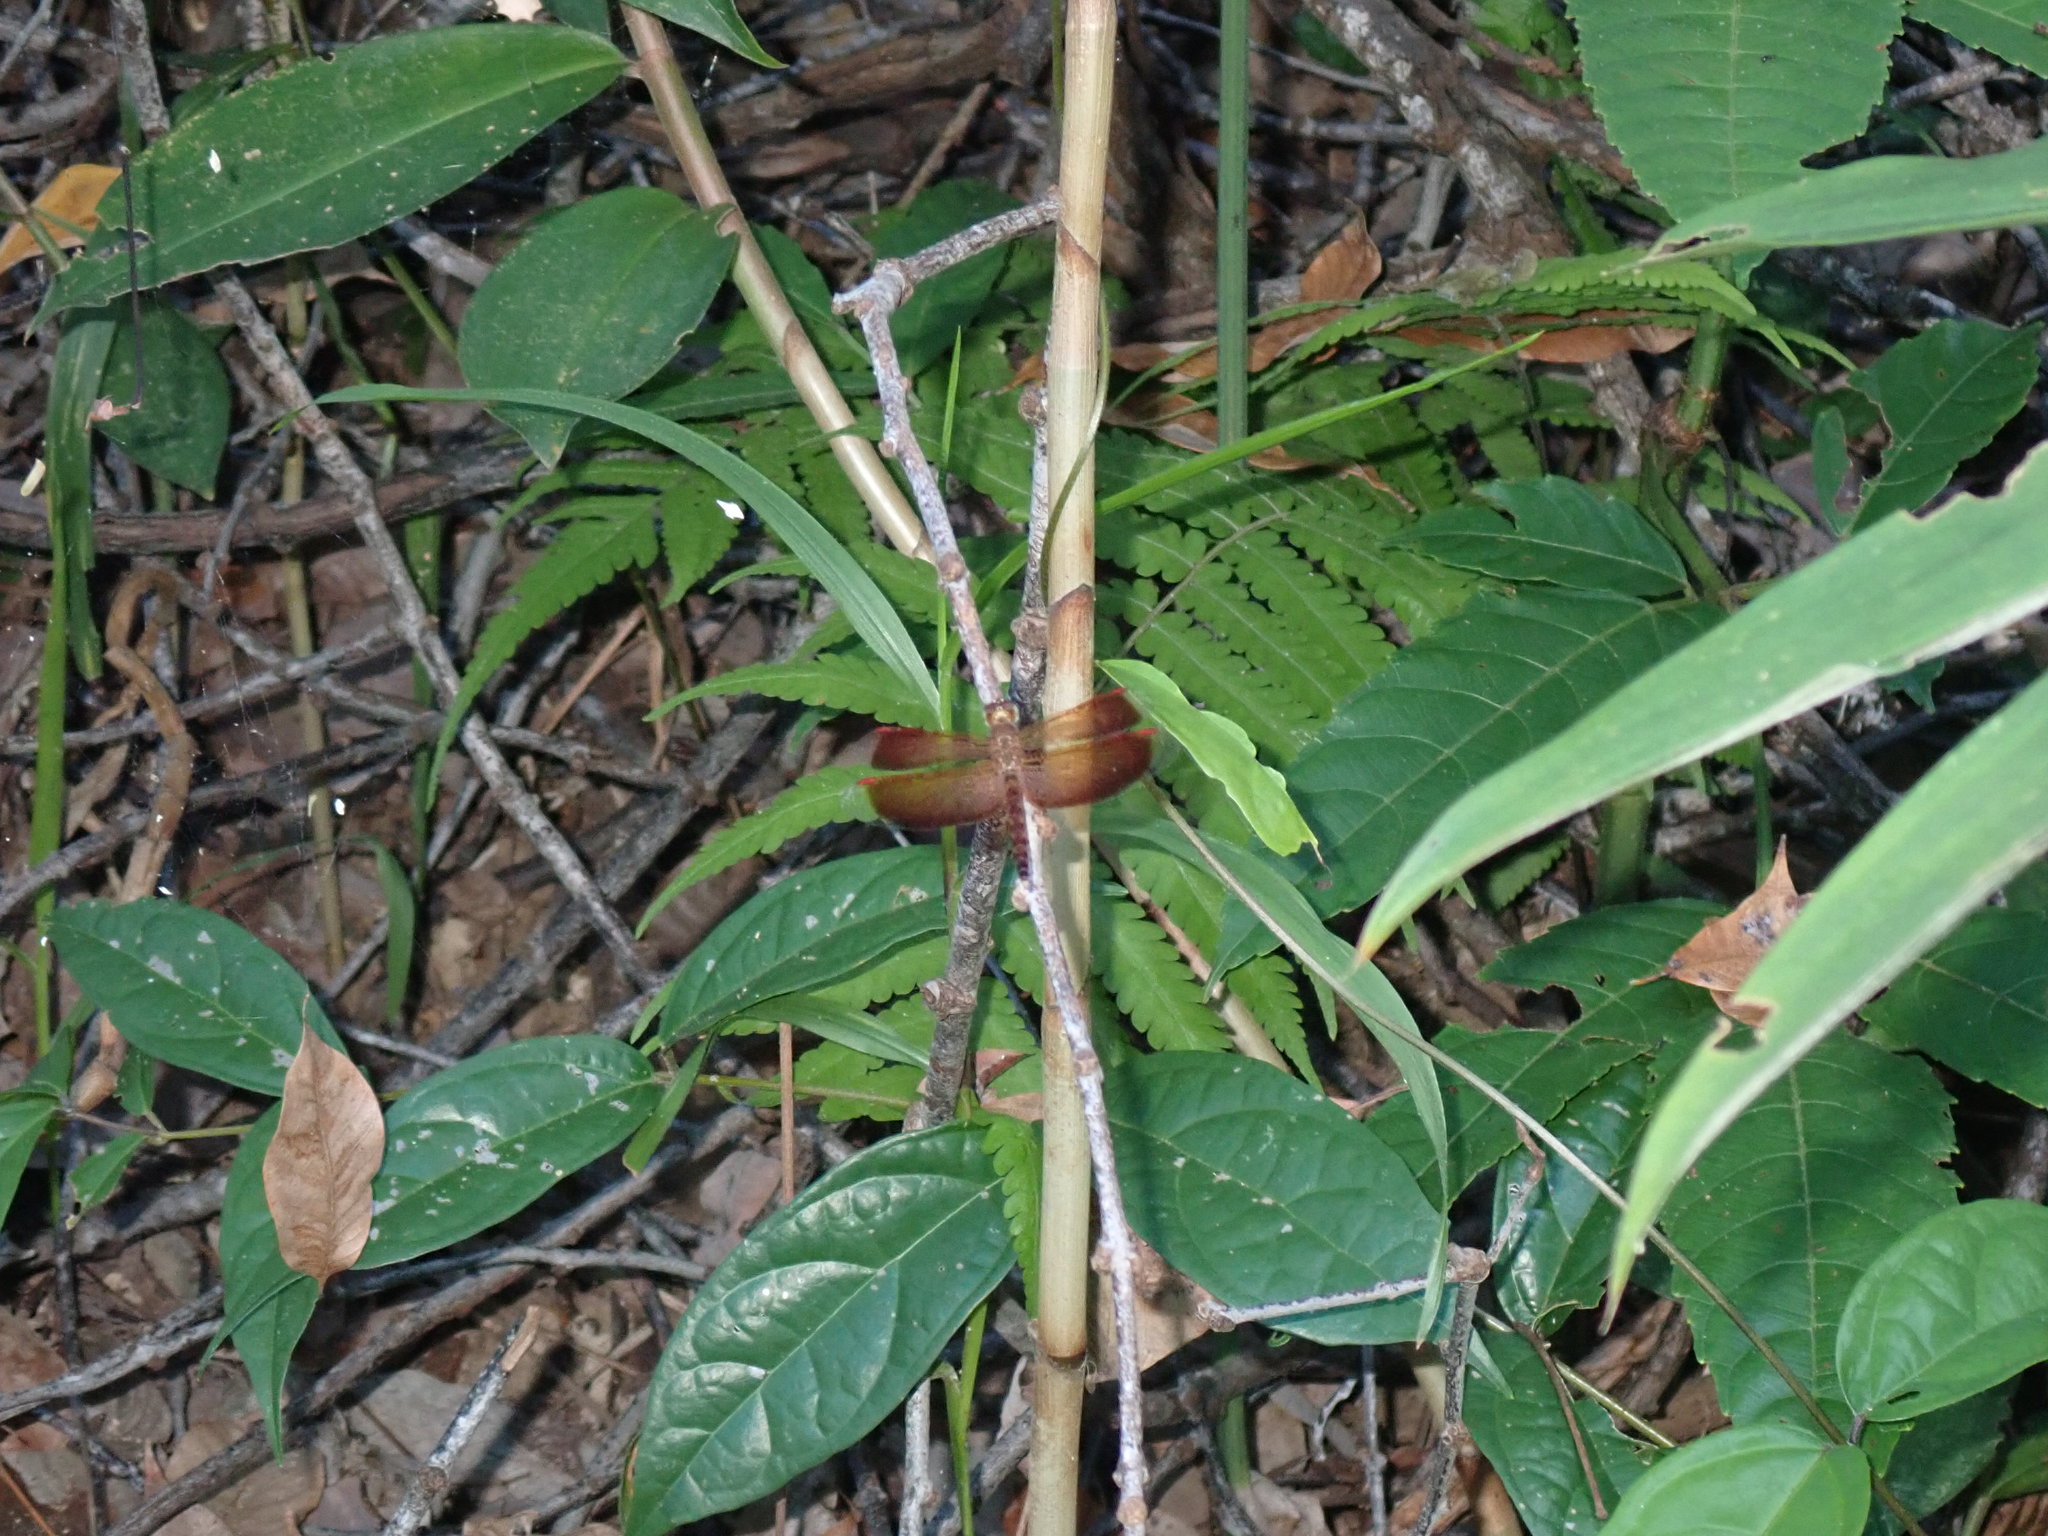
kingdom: Animalia
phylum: Arthropoda
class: Insecta
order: Odonata
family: Libellulidae
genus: Neurothemis
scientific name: Neurothemis fluctuans
